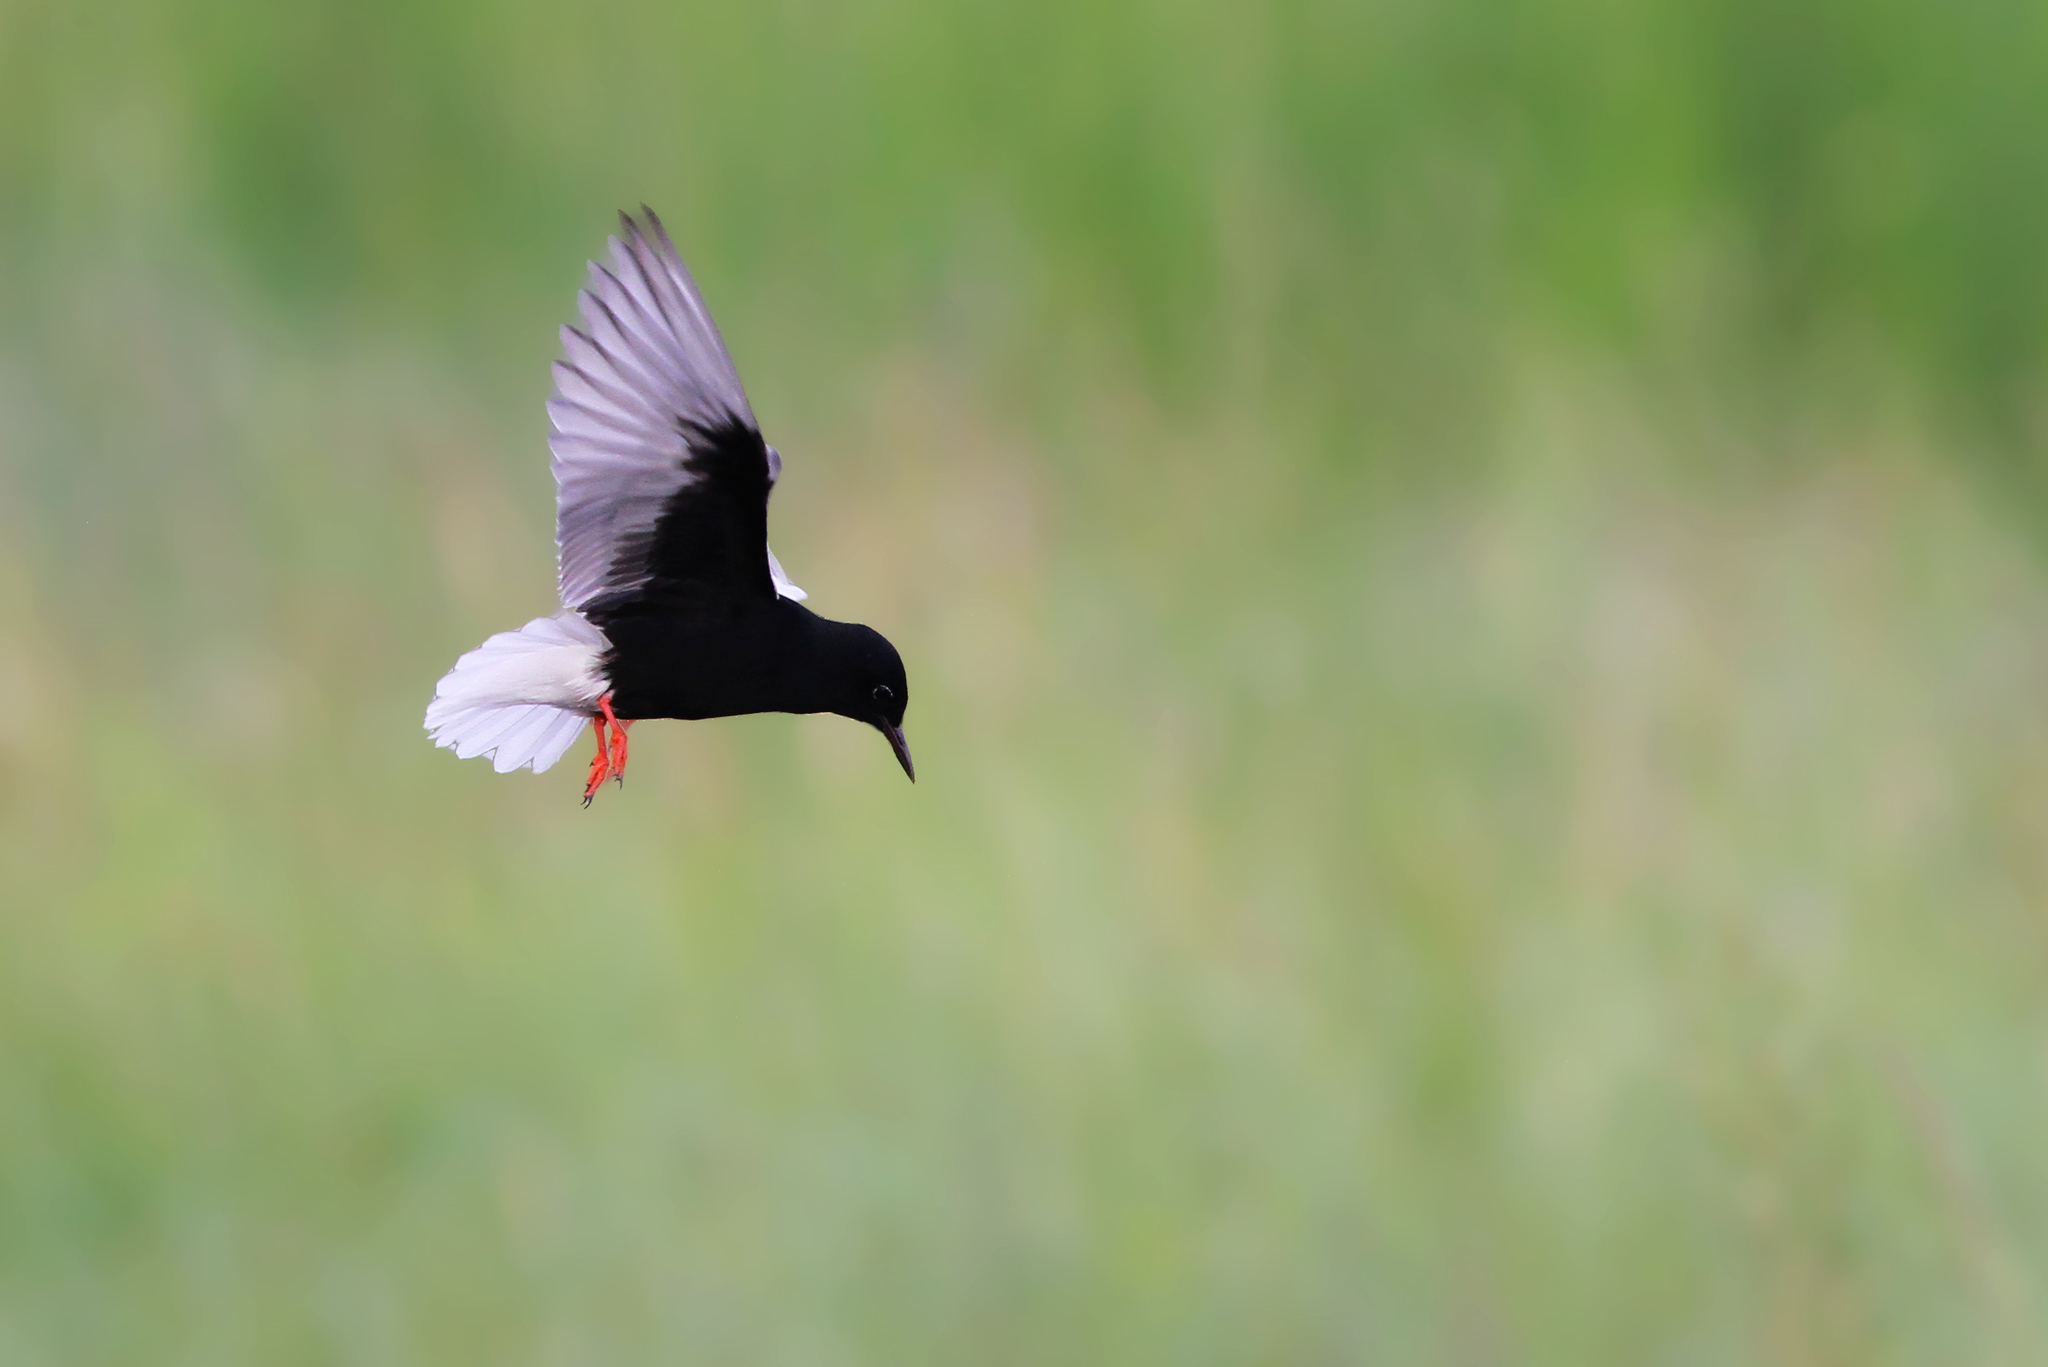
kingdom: Animalia
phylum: Chordata
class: Aves
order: Charadriiformes
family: Laridae
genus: Chlidonias
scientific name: Chlidonias leucopterus
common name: White-winged tern
